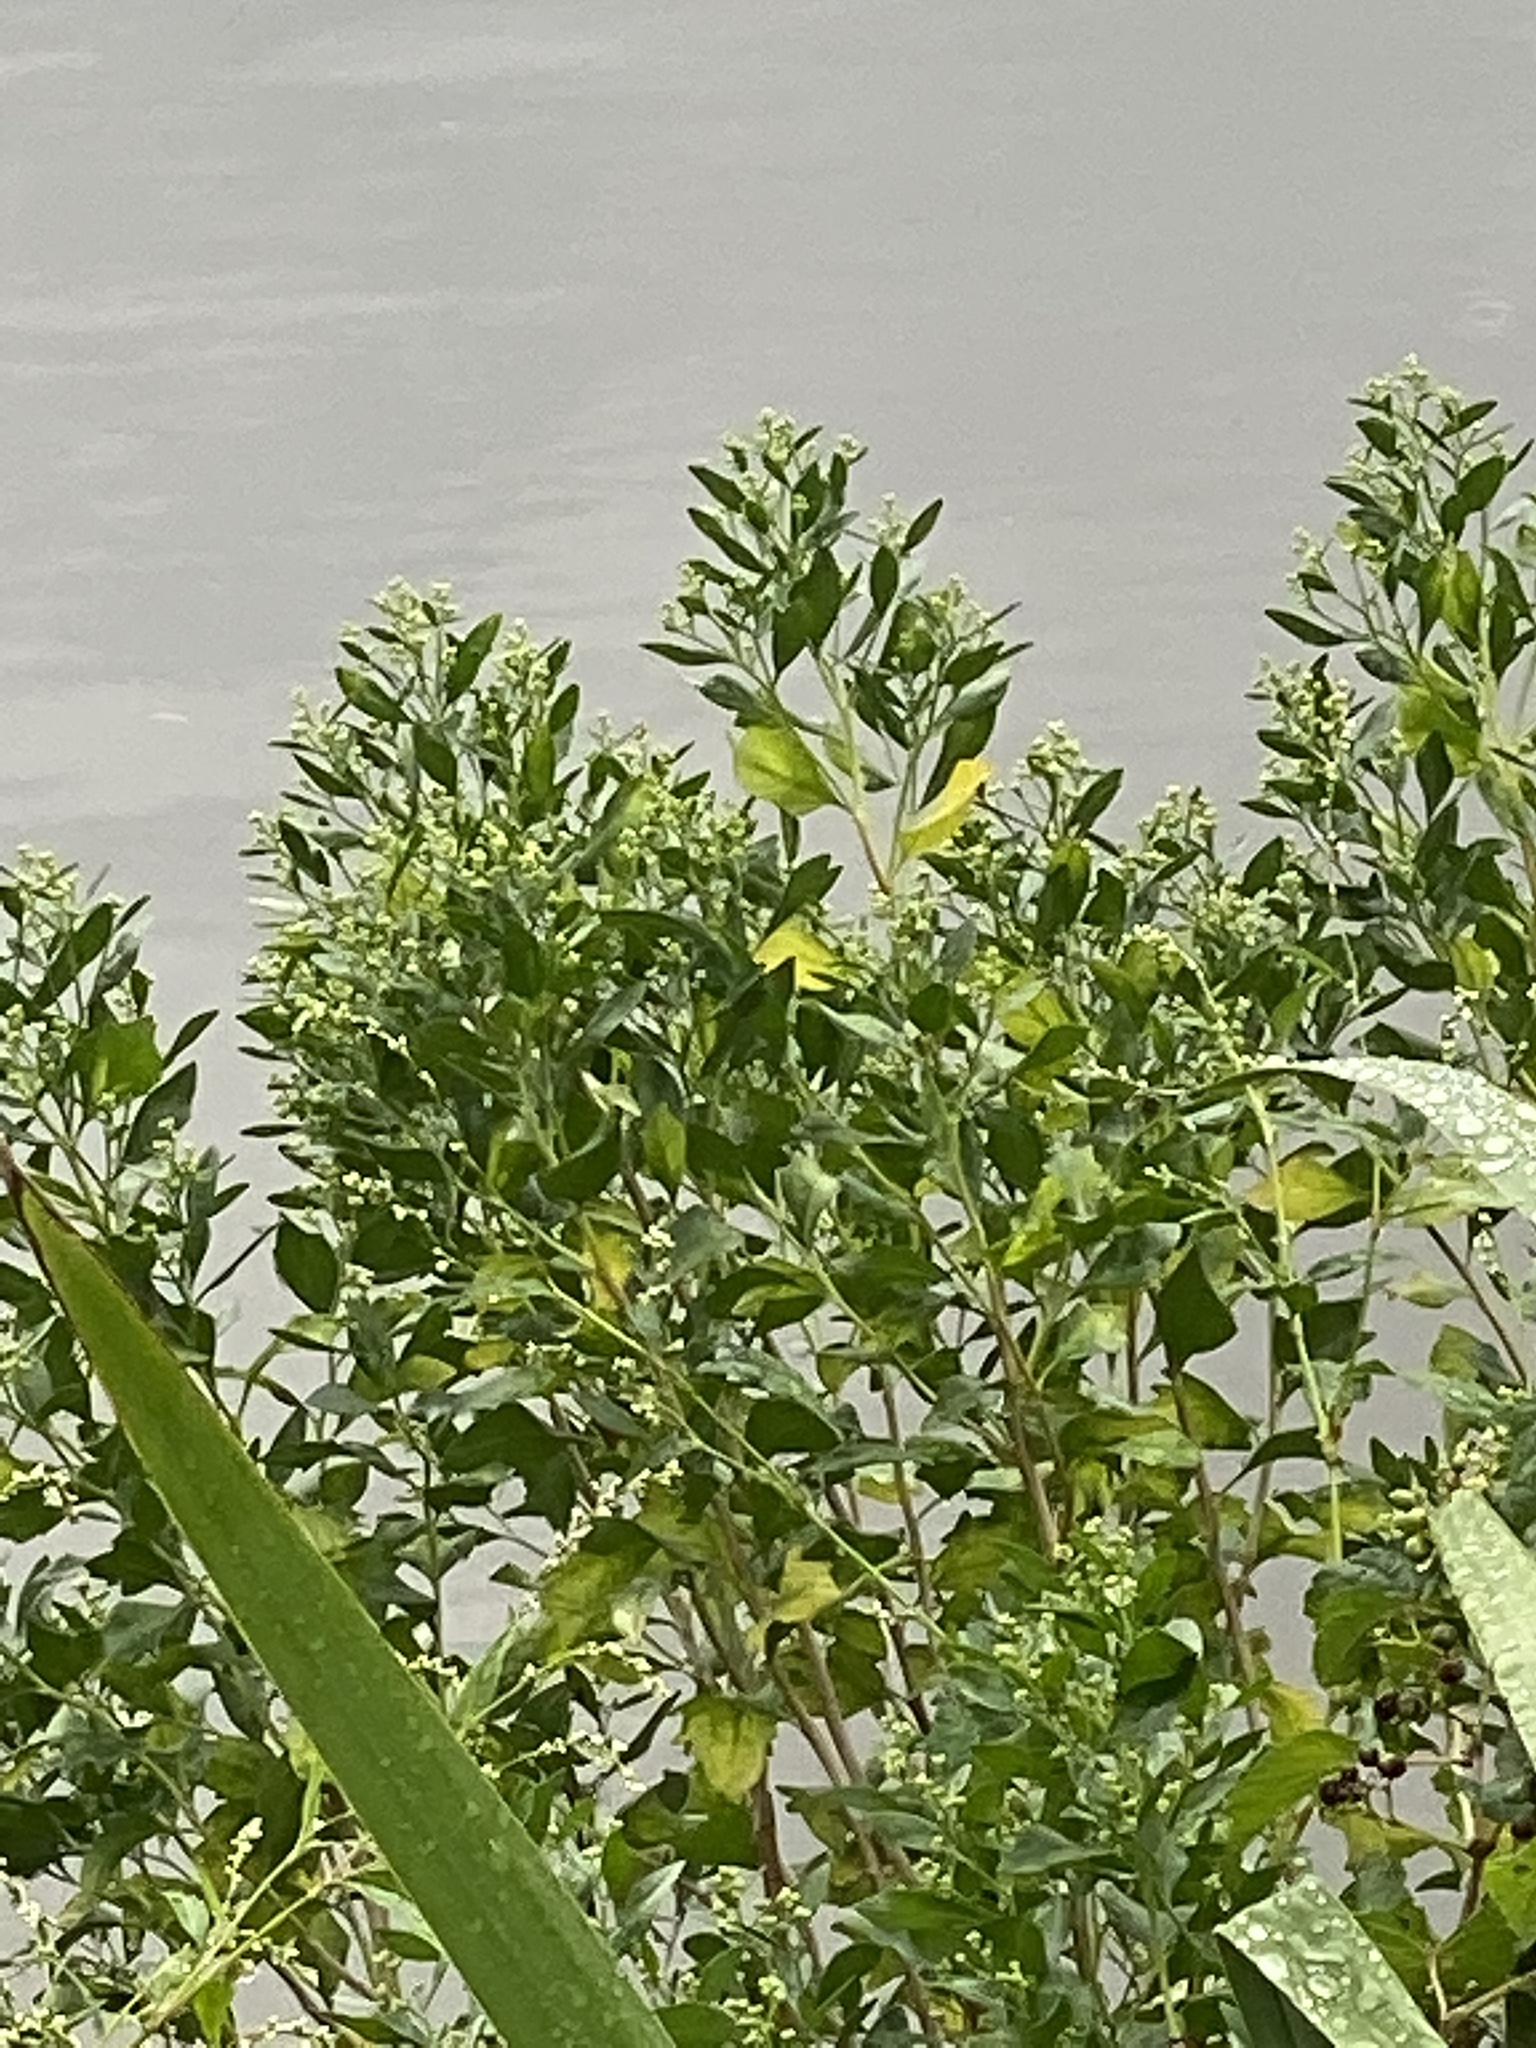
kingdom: Plantae
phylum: Tracheophyta
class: Magnoliopsida
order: Asterales
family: Asteraceae
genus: Baccharis
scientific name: Baccharis halimifolia
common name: Eastern baccharis
